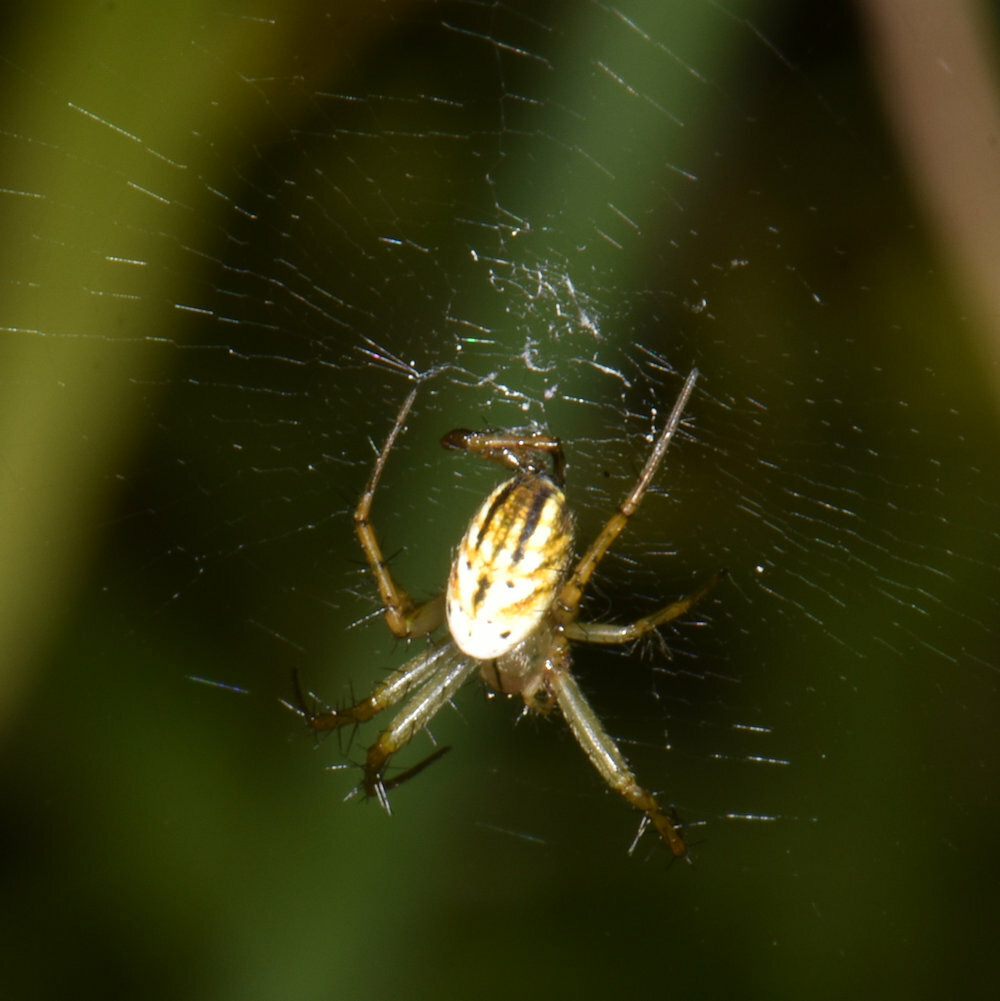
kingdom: Animalia
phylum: Arthropoda
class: Arachnida
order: Araneae
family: Araneidae
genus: Mangora
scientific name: Mangora gibberosa
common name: Lined orbweaver
